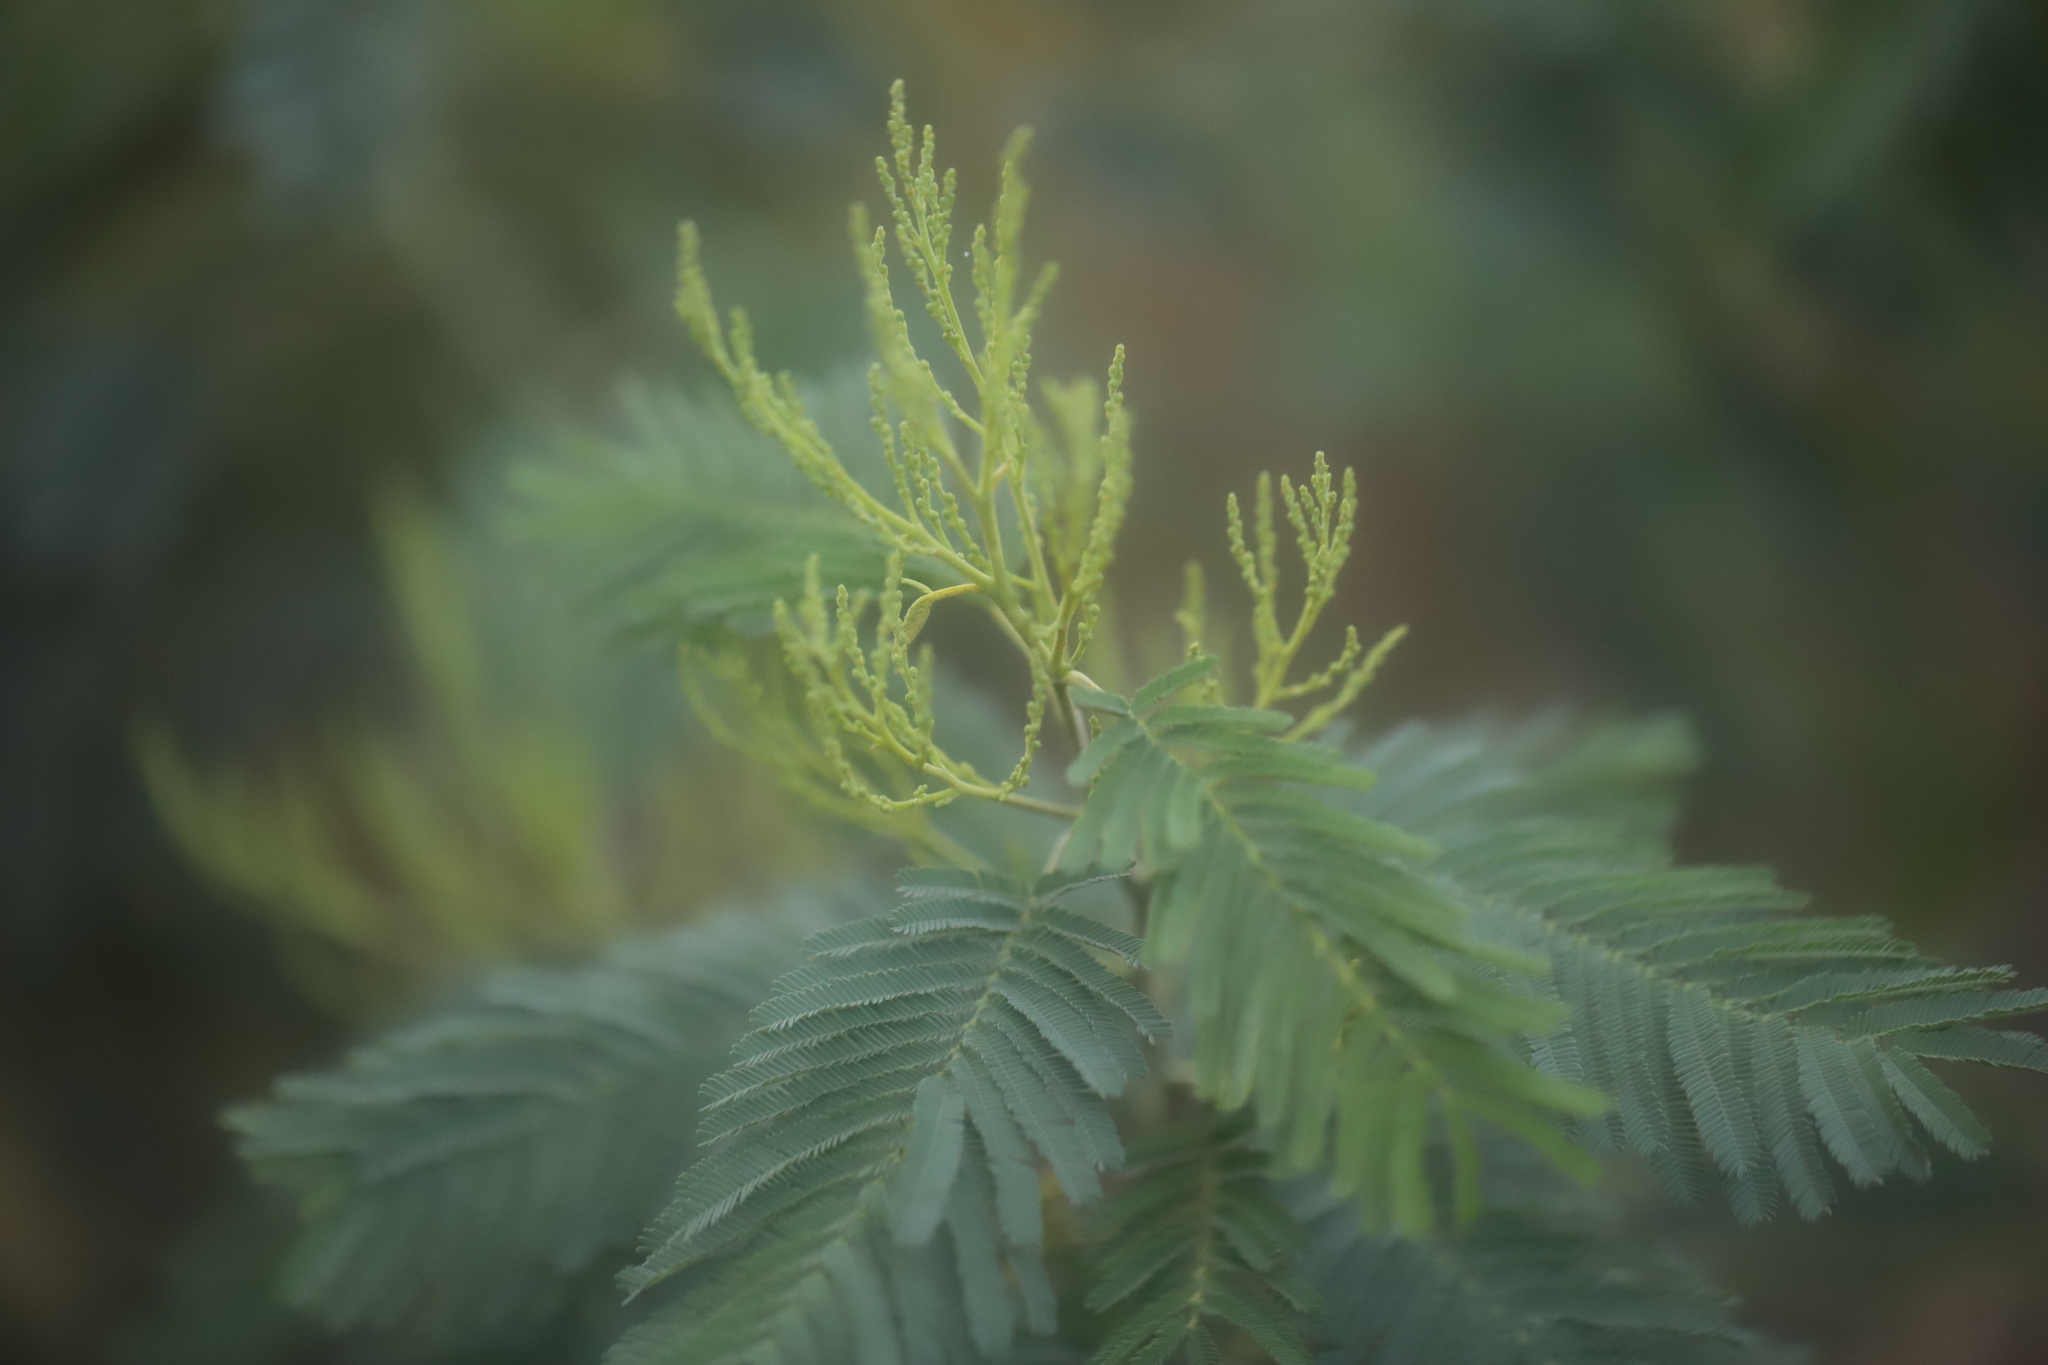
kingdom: Plantae
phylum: Tracheophyta
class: Magnoliopsida
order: Fabales
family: Fabaceae
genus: Acacia
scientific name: Acacia dealbata
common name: Silver wattle
